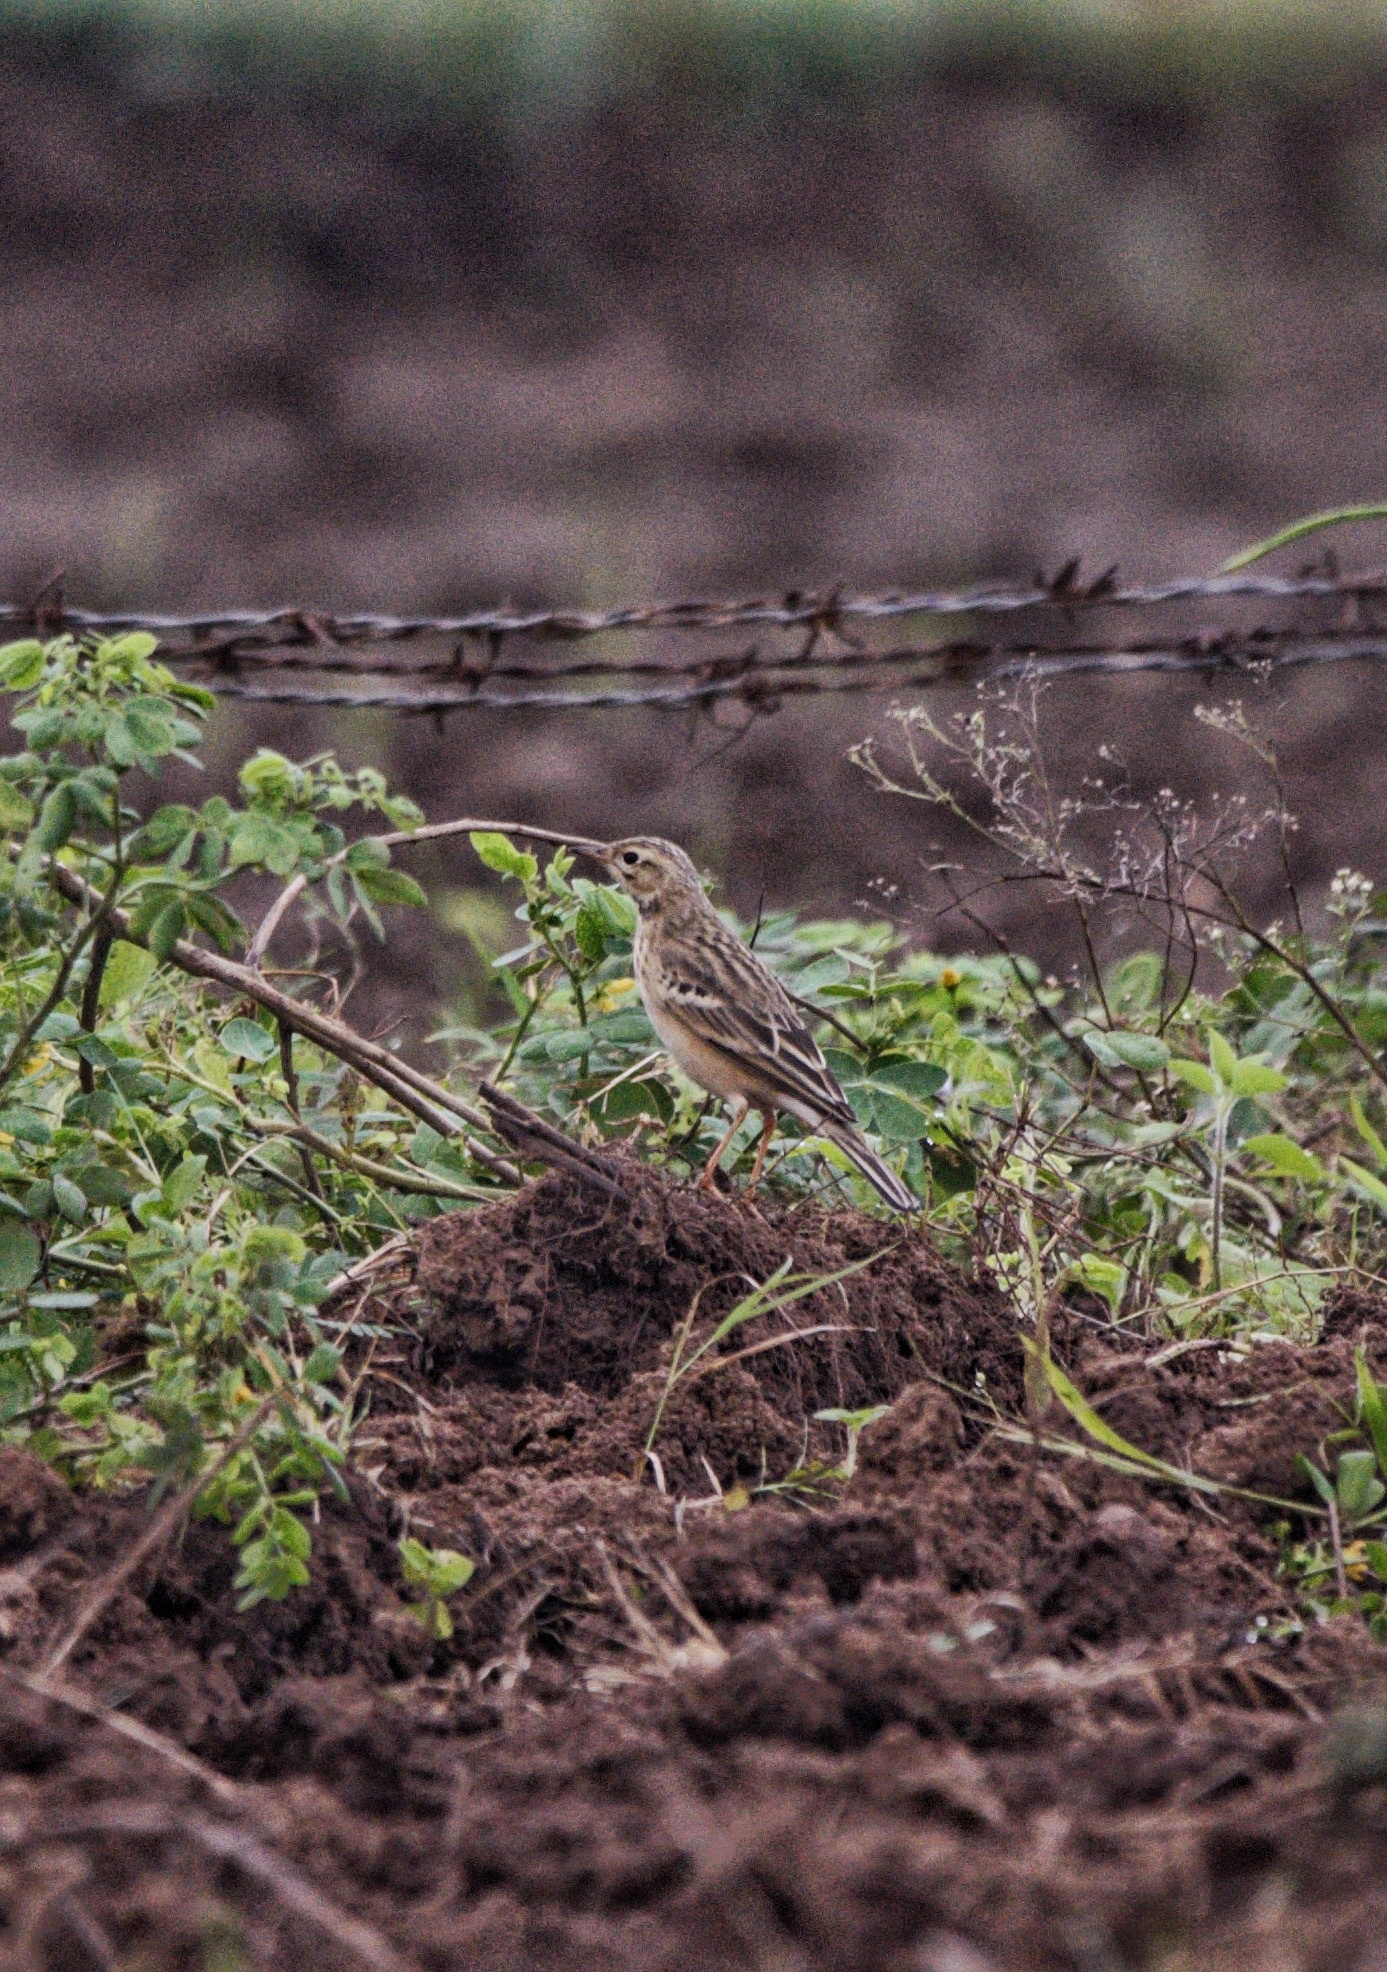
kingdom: Animalia
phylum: Chordata
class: Aves
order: Passeriformes
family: Motacillidae
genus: Anthus
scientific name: Anthus rufulus
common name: Paddyfield pipit
